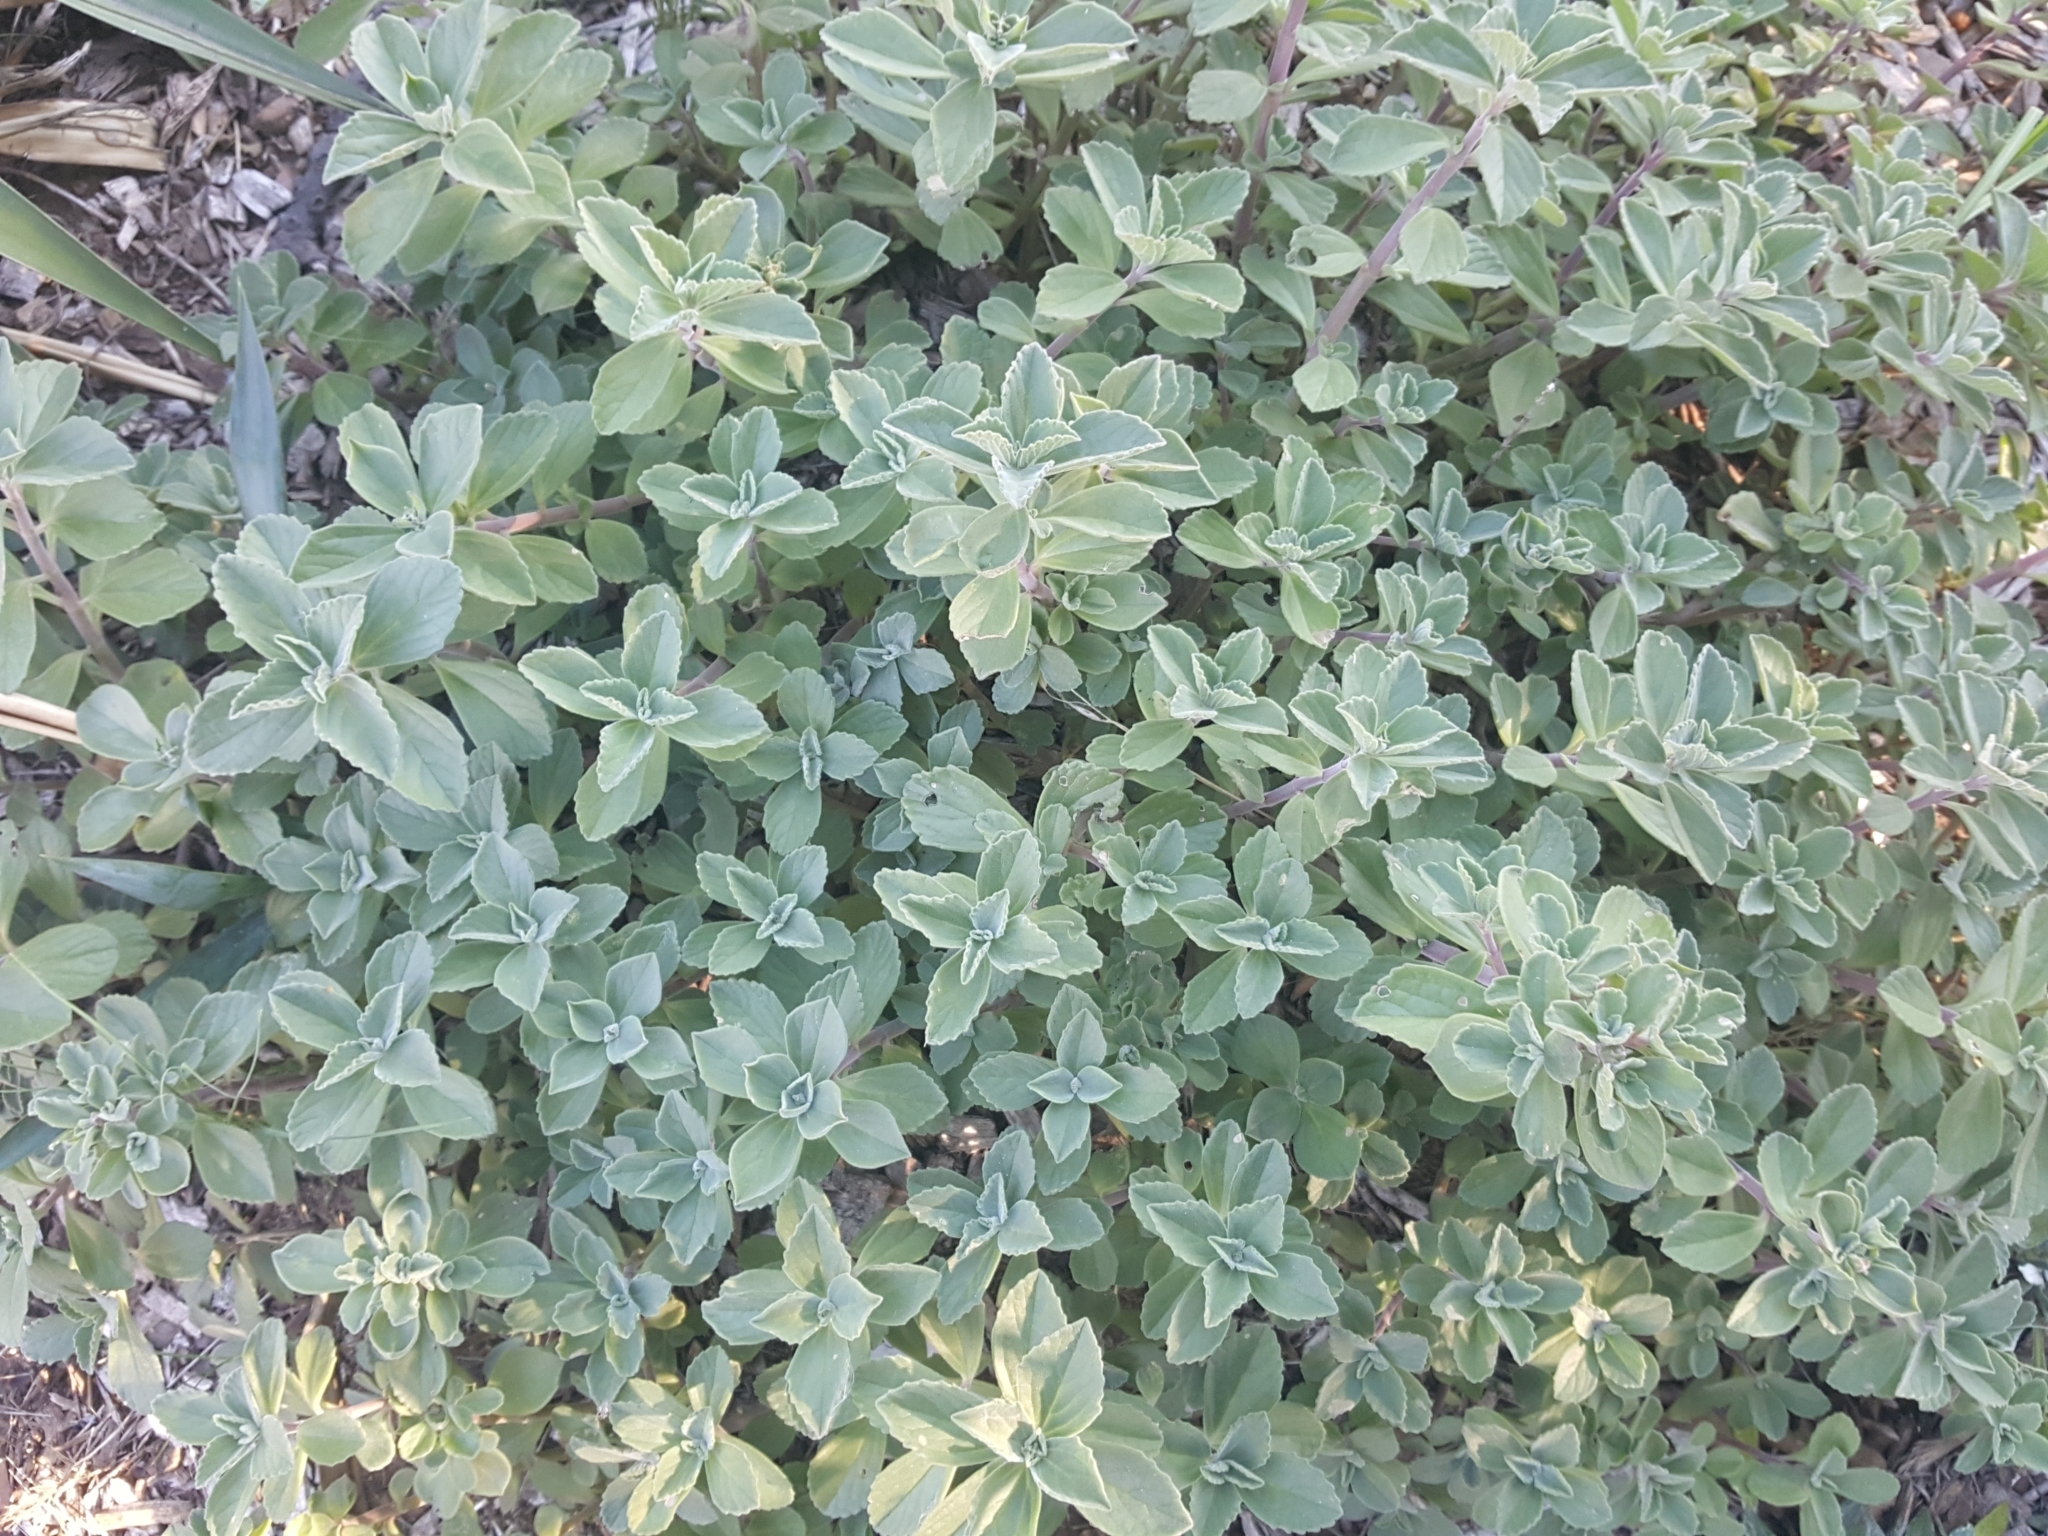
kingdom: Plantae
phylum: Tracheophyta
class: Magnoliopsida
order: Lamiales
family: Lamiaceae
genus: Coleus
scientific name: Coleus neochilus
